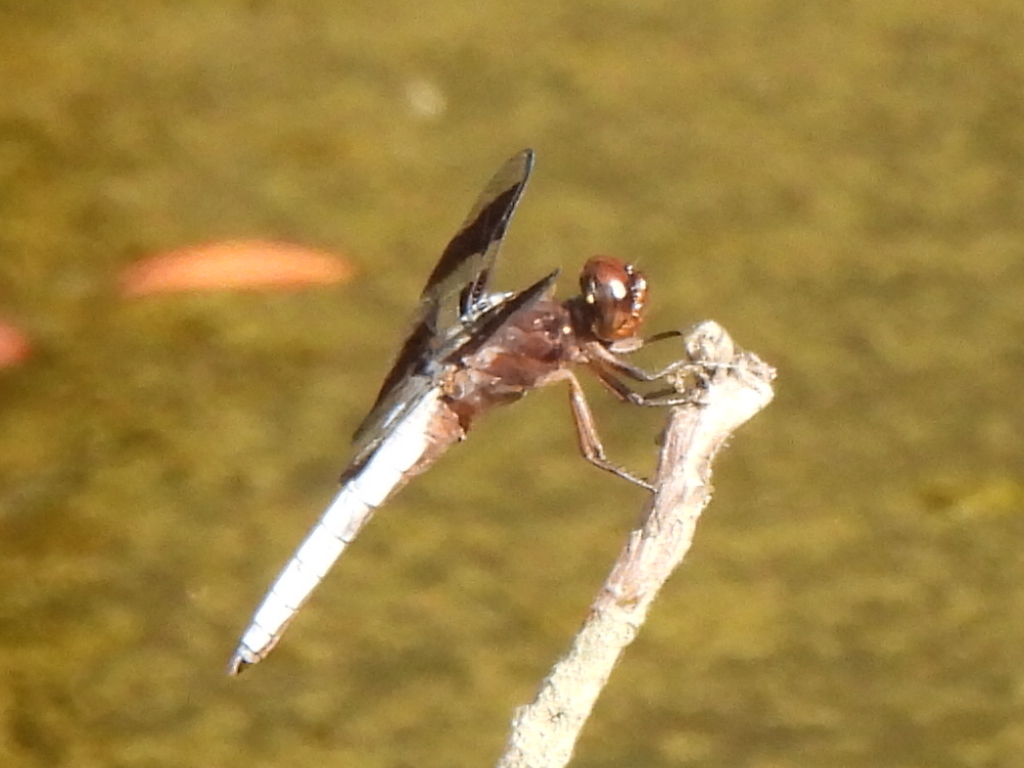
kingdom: Animalia
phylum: Arthropoda
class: Insecta
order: Odonata
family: Libellulidae
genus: Plathemis
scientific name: Plathemis lydia
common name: Common whitetail
